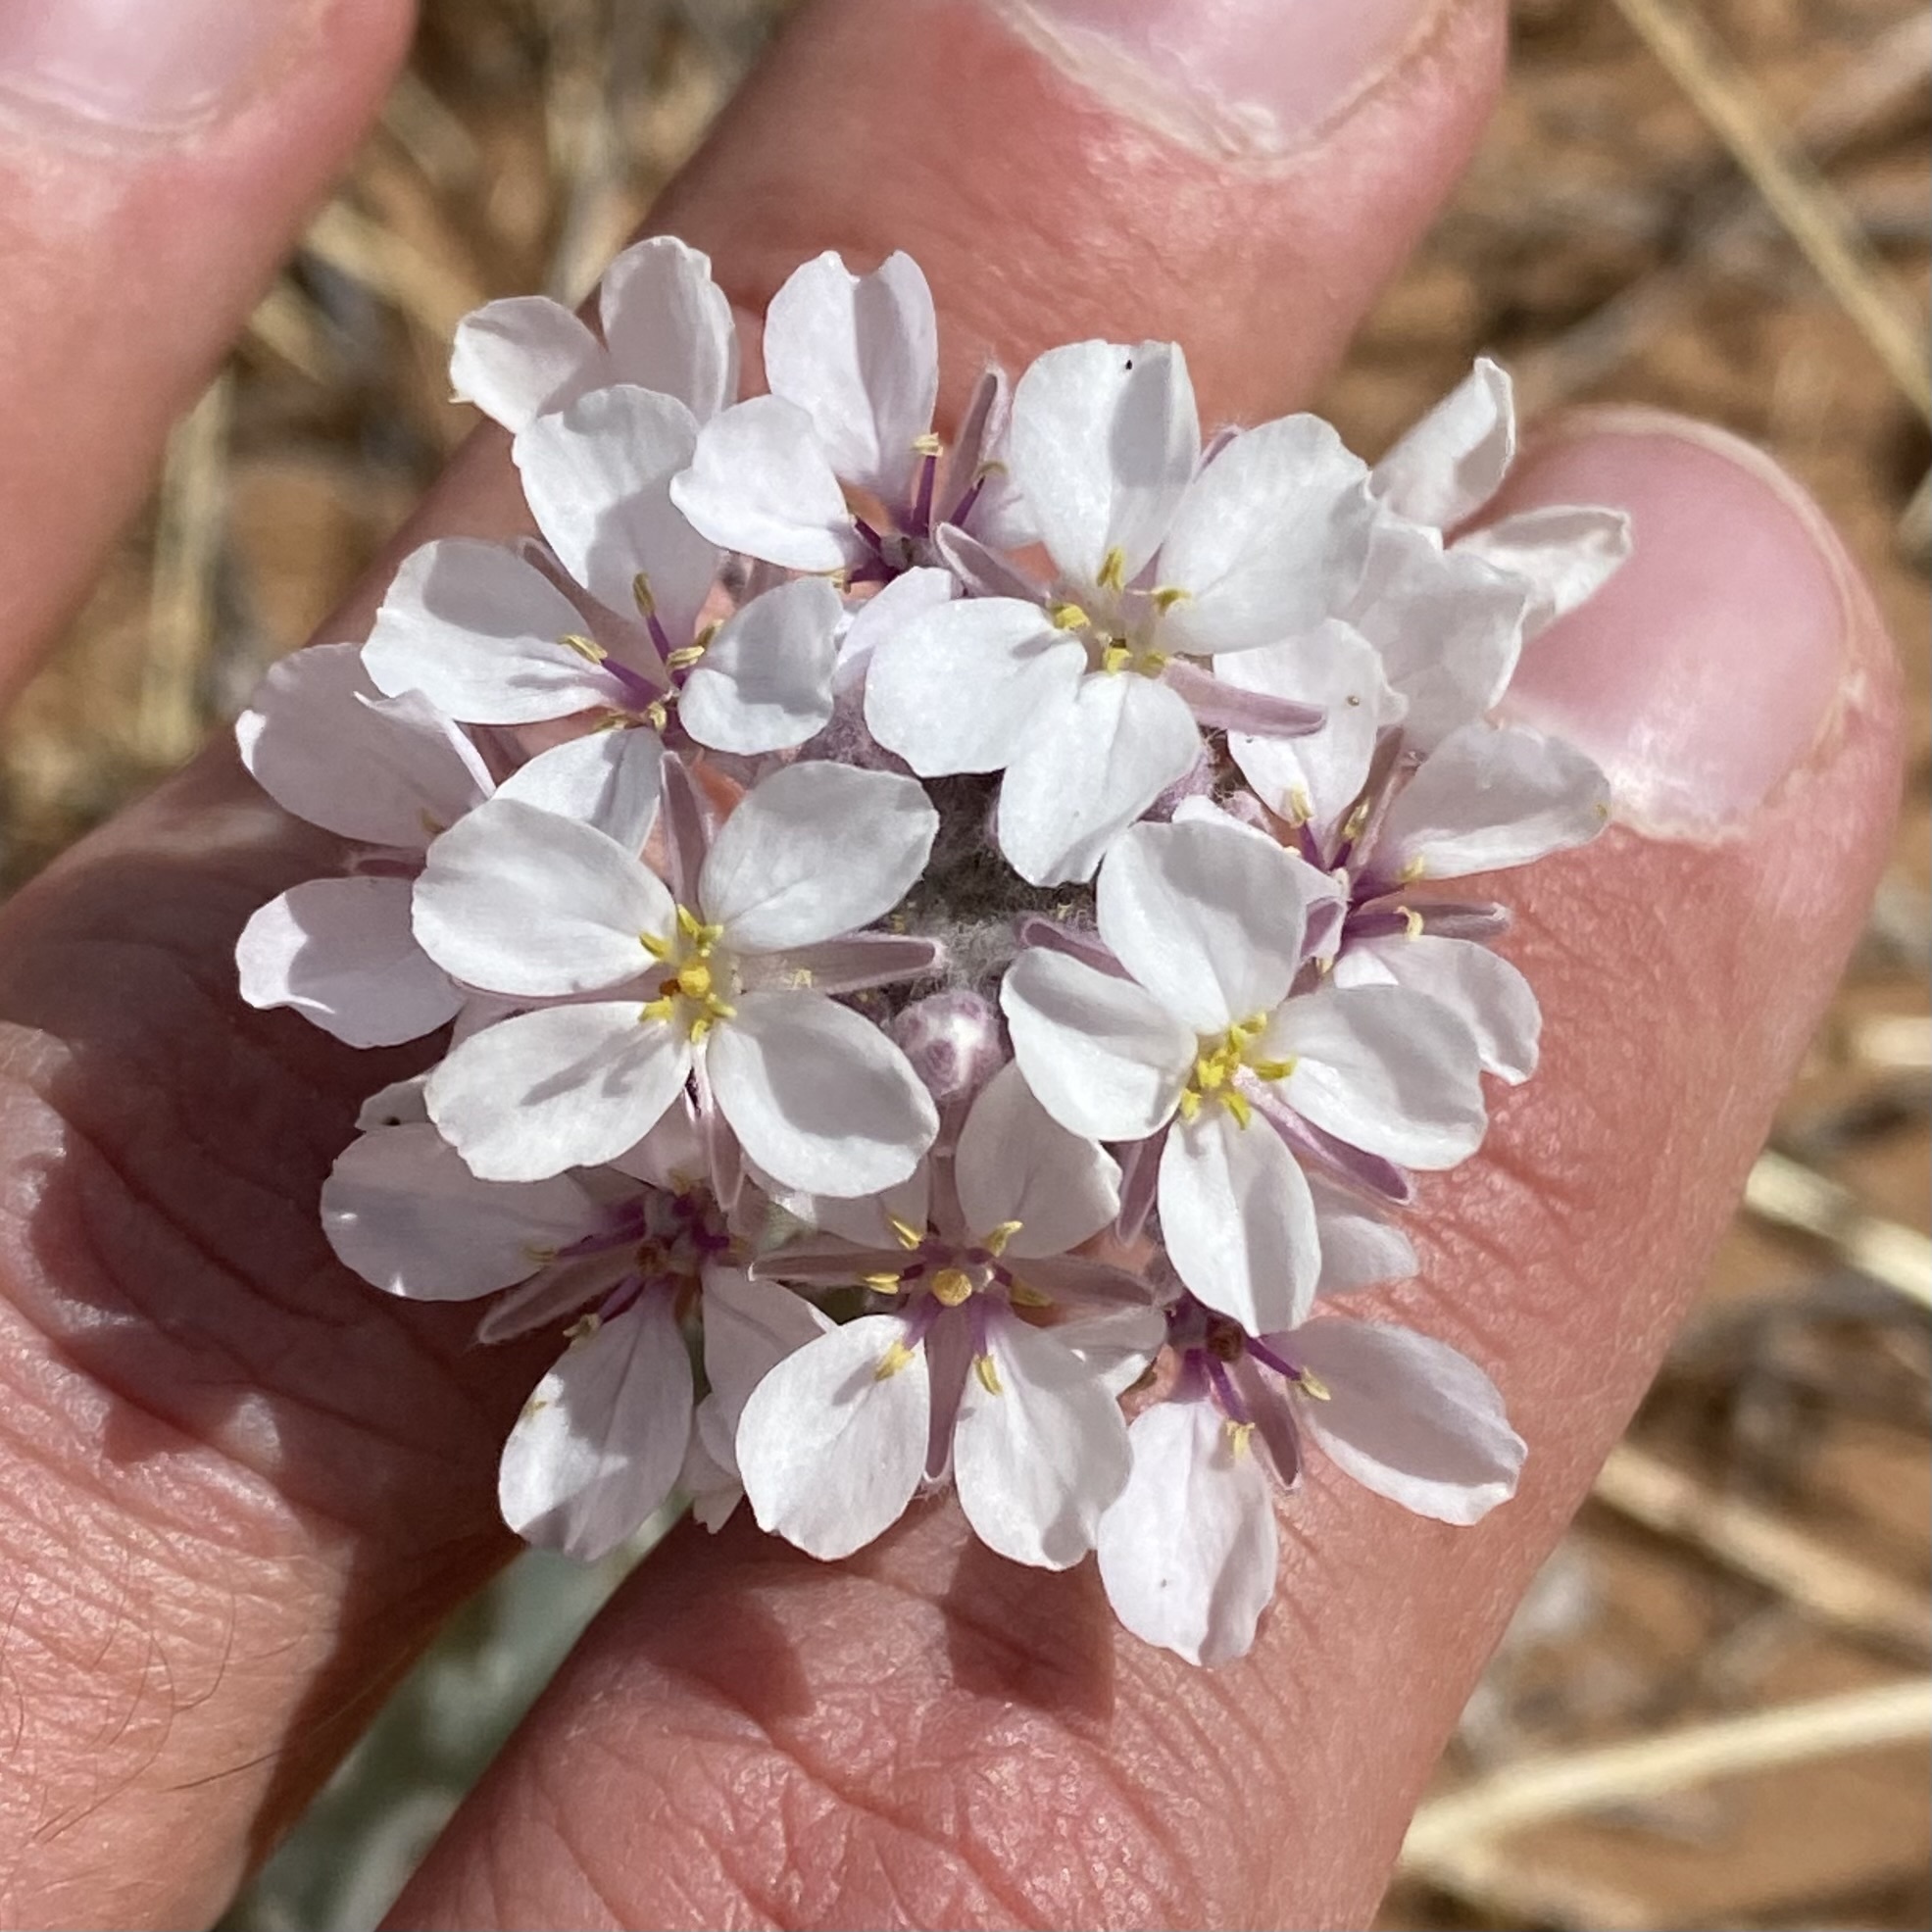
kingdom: Plantae
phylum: Tracheophyta
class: Magnoliopsida
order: Brassicales
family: Brassicaceae
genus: Dimorphocarpa
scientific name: Dimorphocarpa candicans
